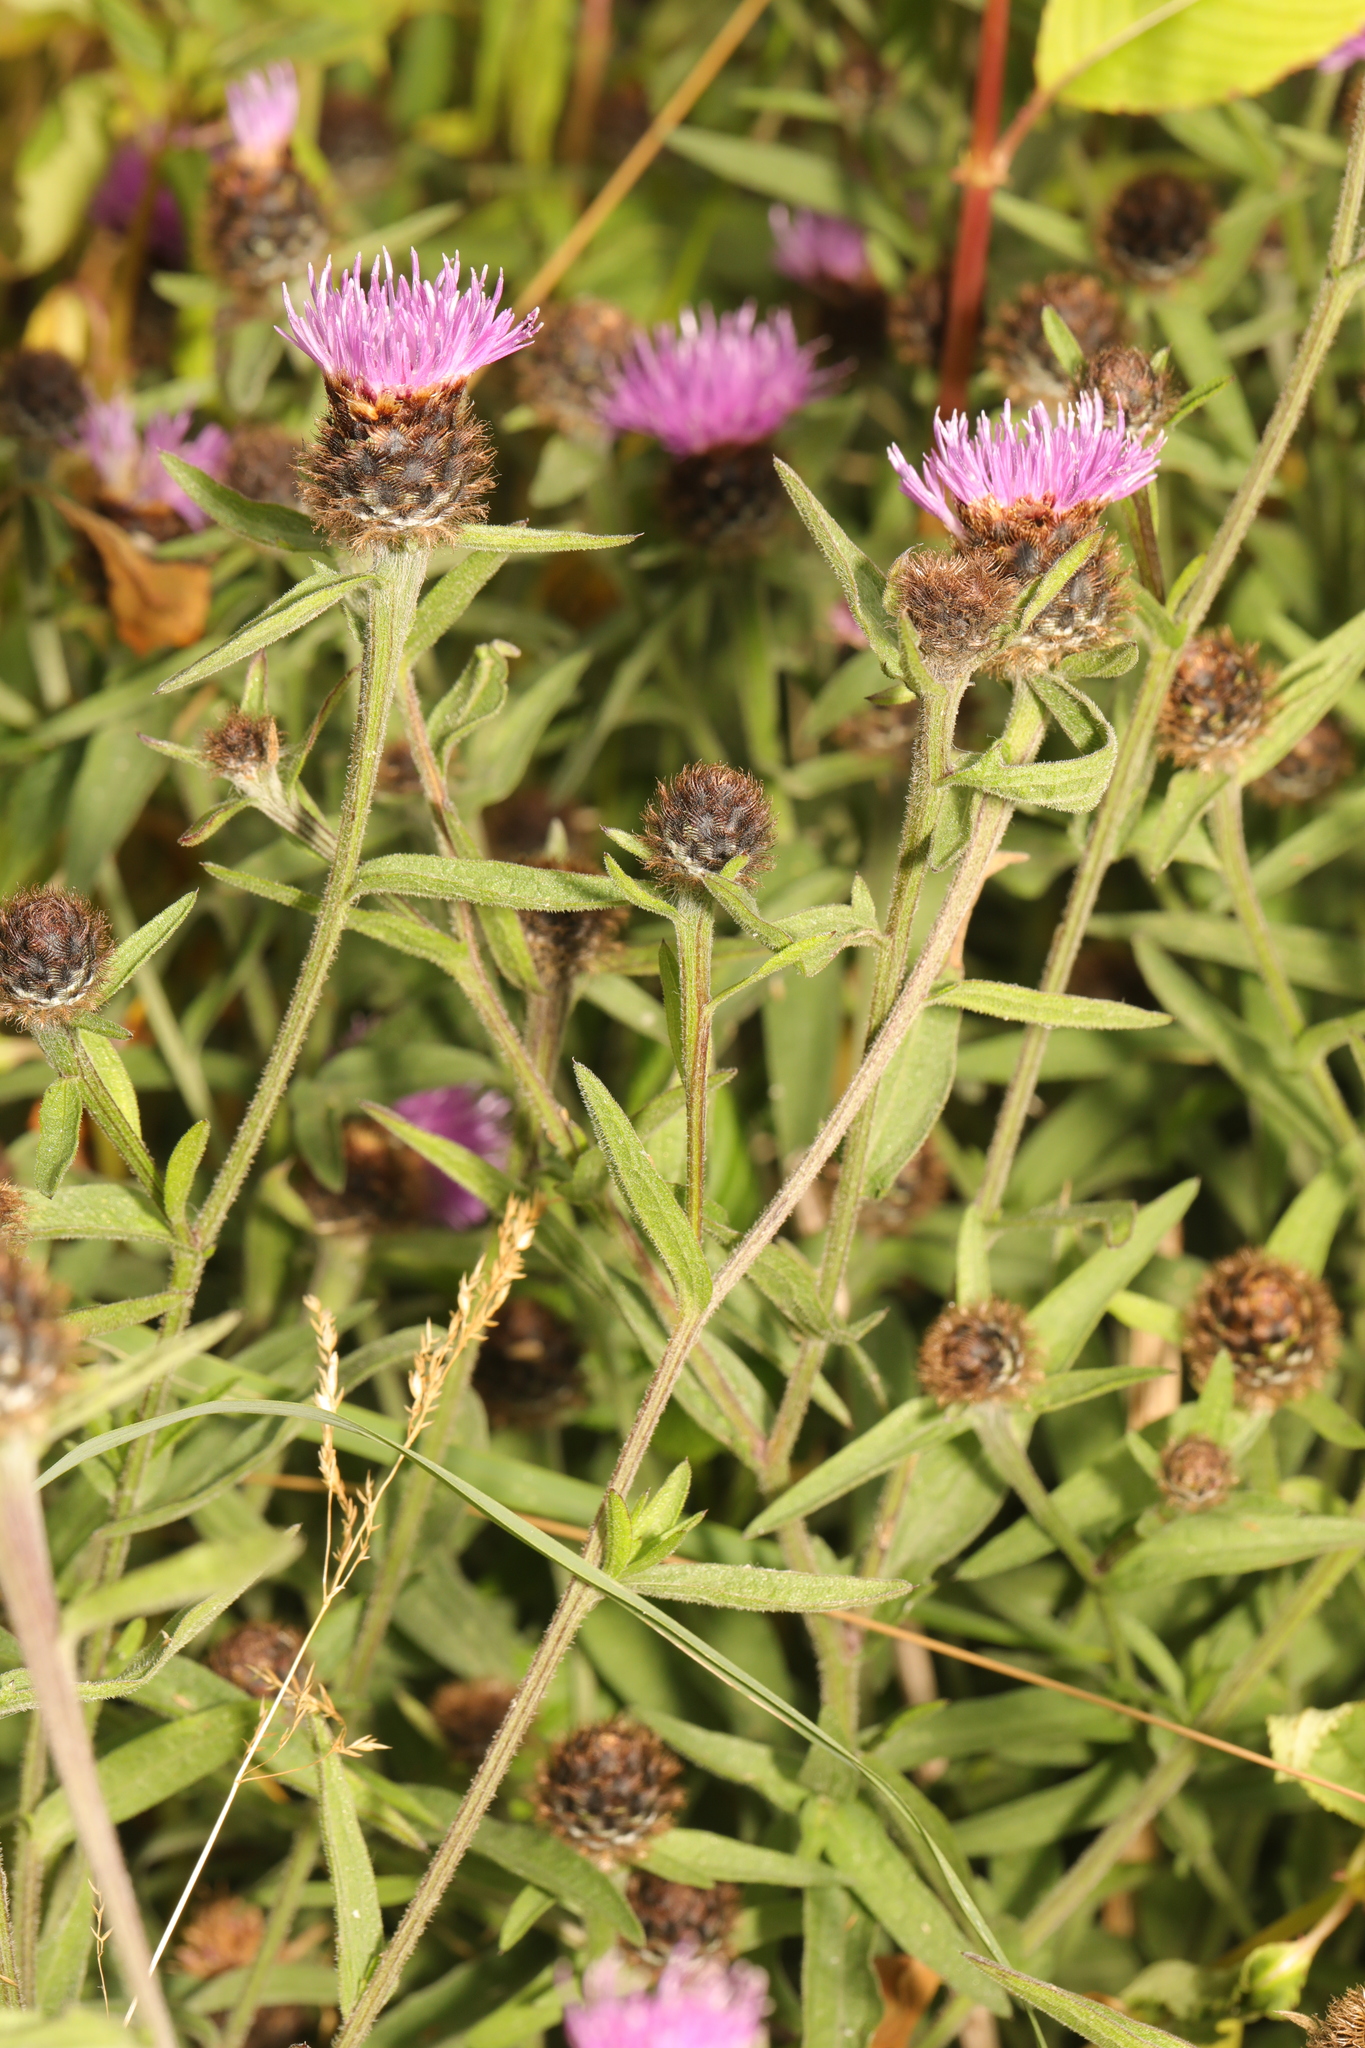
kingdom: Plantae
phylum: Tracheophyta
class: Magnoliopsida
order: Asterales
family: Asteraceae
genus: Centaurea
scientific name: Centaurea nigra
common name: Lesser knapweed
